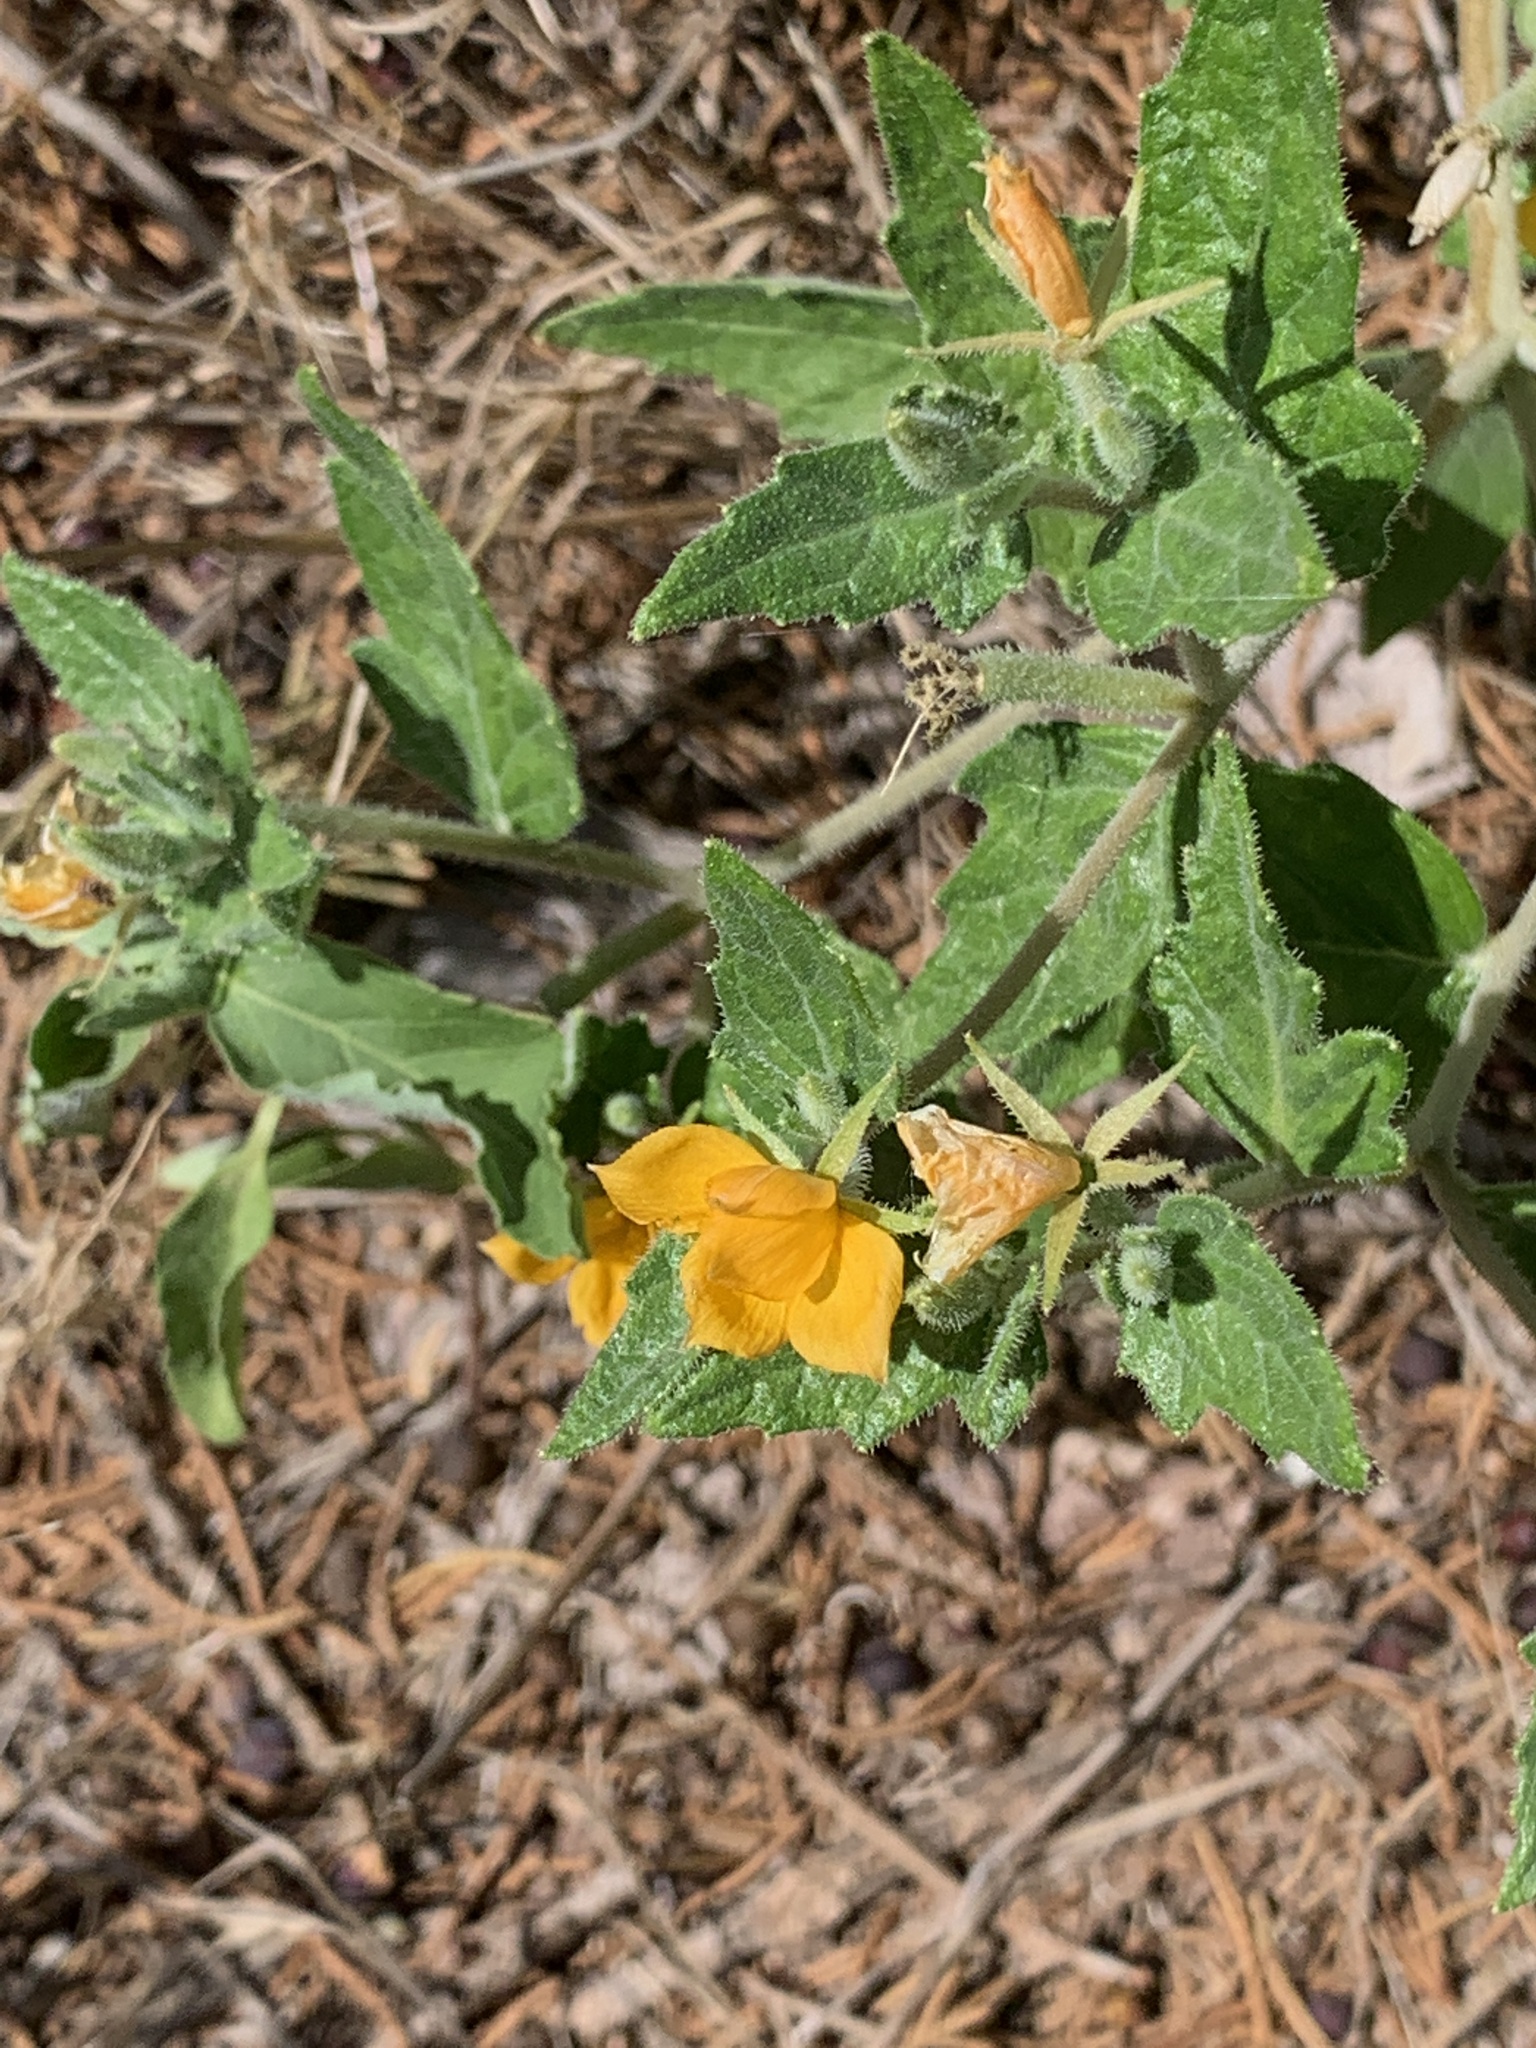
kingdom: Plantae
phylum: Tracheophyta
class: Magnoliopsida
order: Cornales
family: Loasaceae
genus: Mentzelia
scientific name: Mentzelia oligosperma
